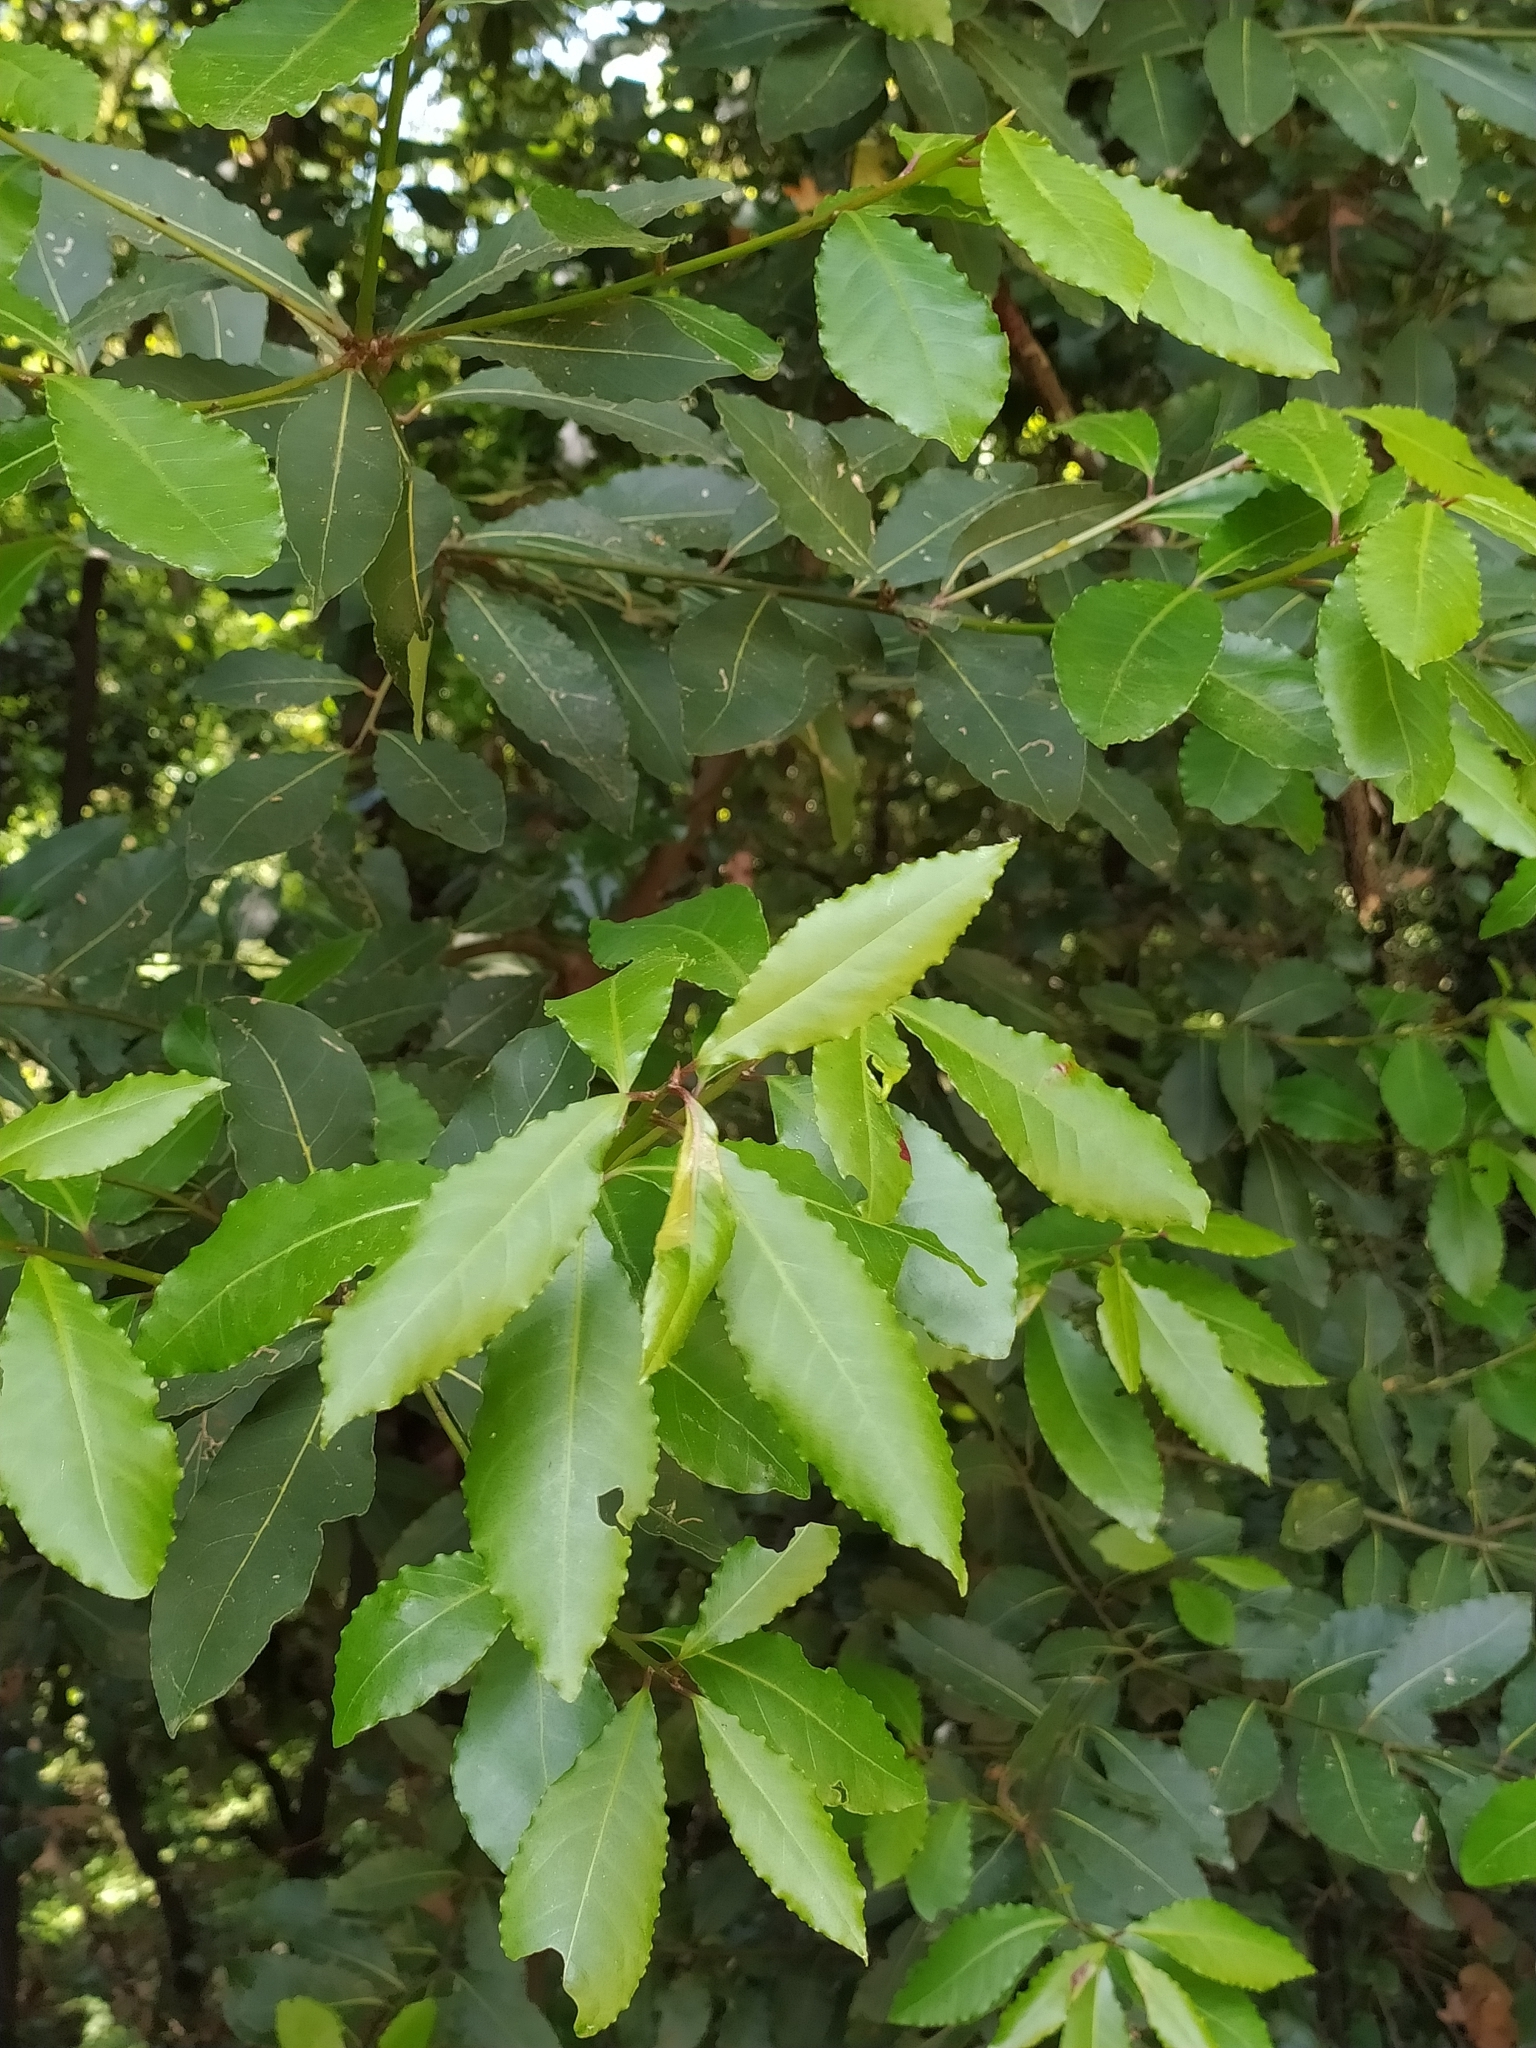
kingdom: Plantae
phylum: Tracheophyta
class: Magnoliopsida
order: Laurales
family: Lauraceae
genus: Laurus
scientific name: Laurus nobilis
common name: Bay
